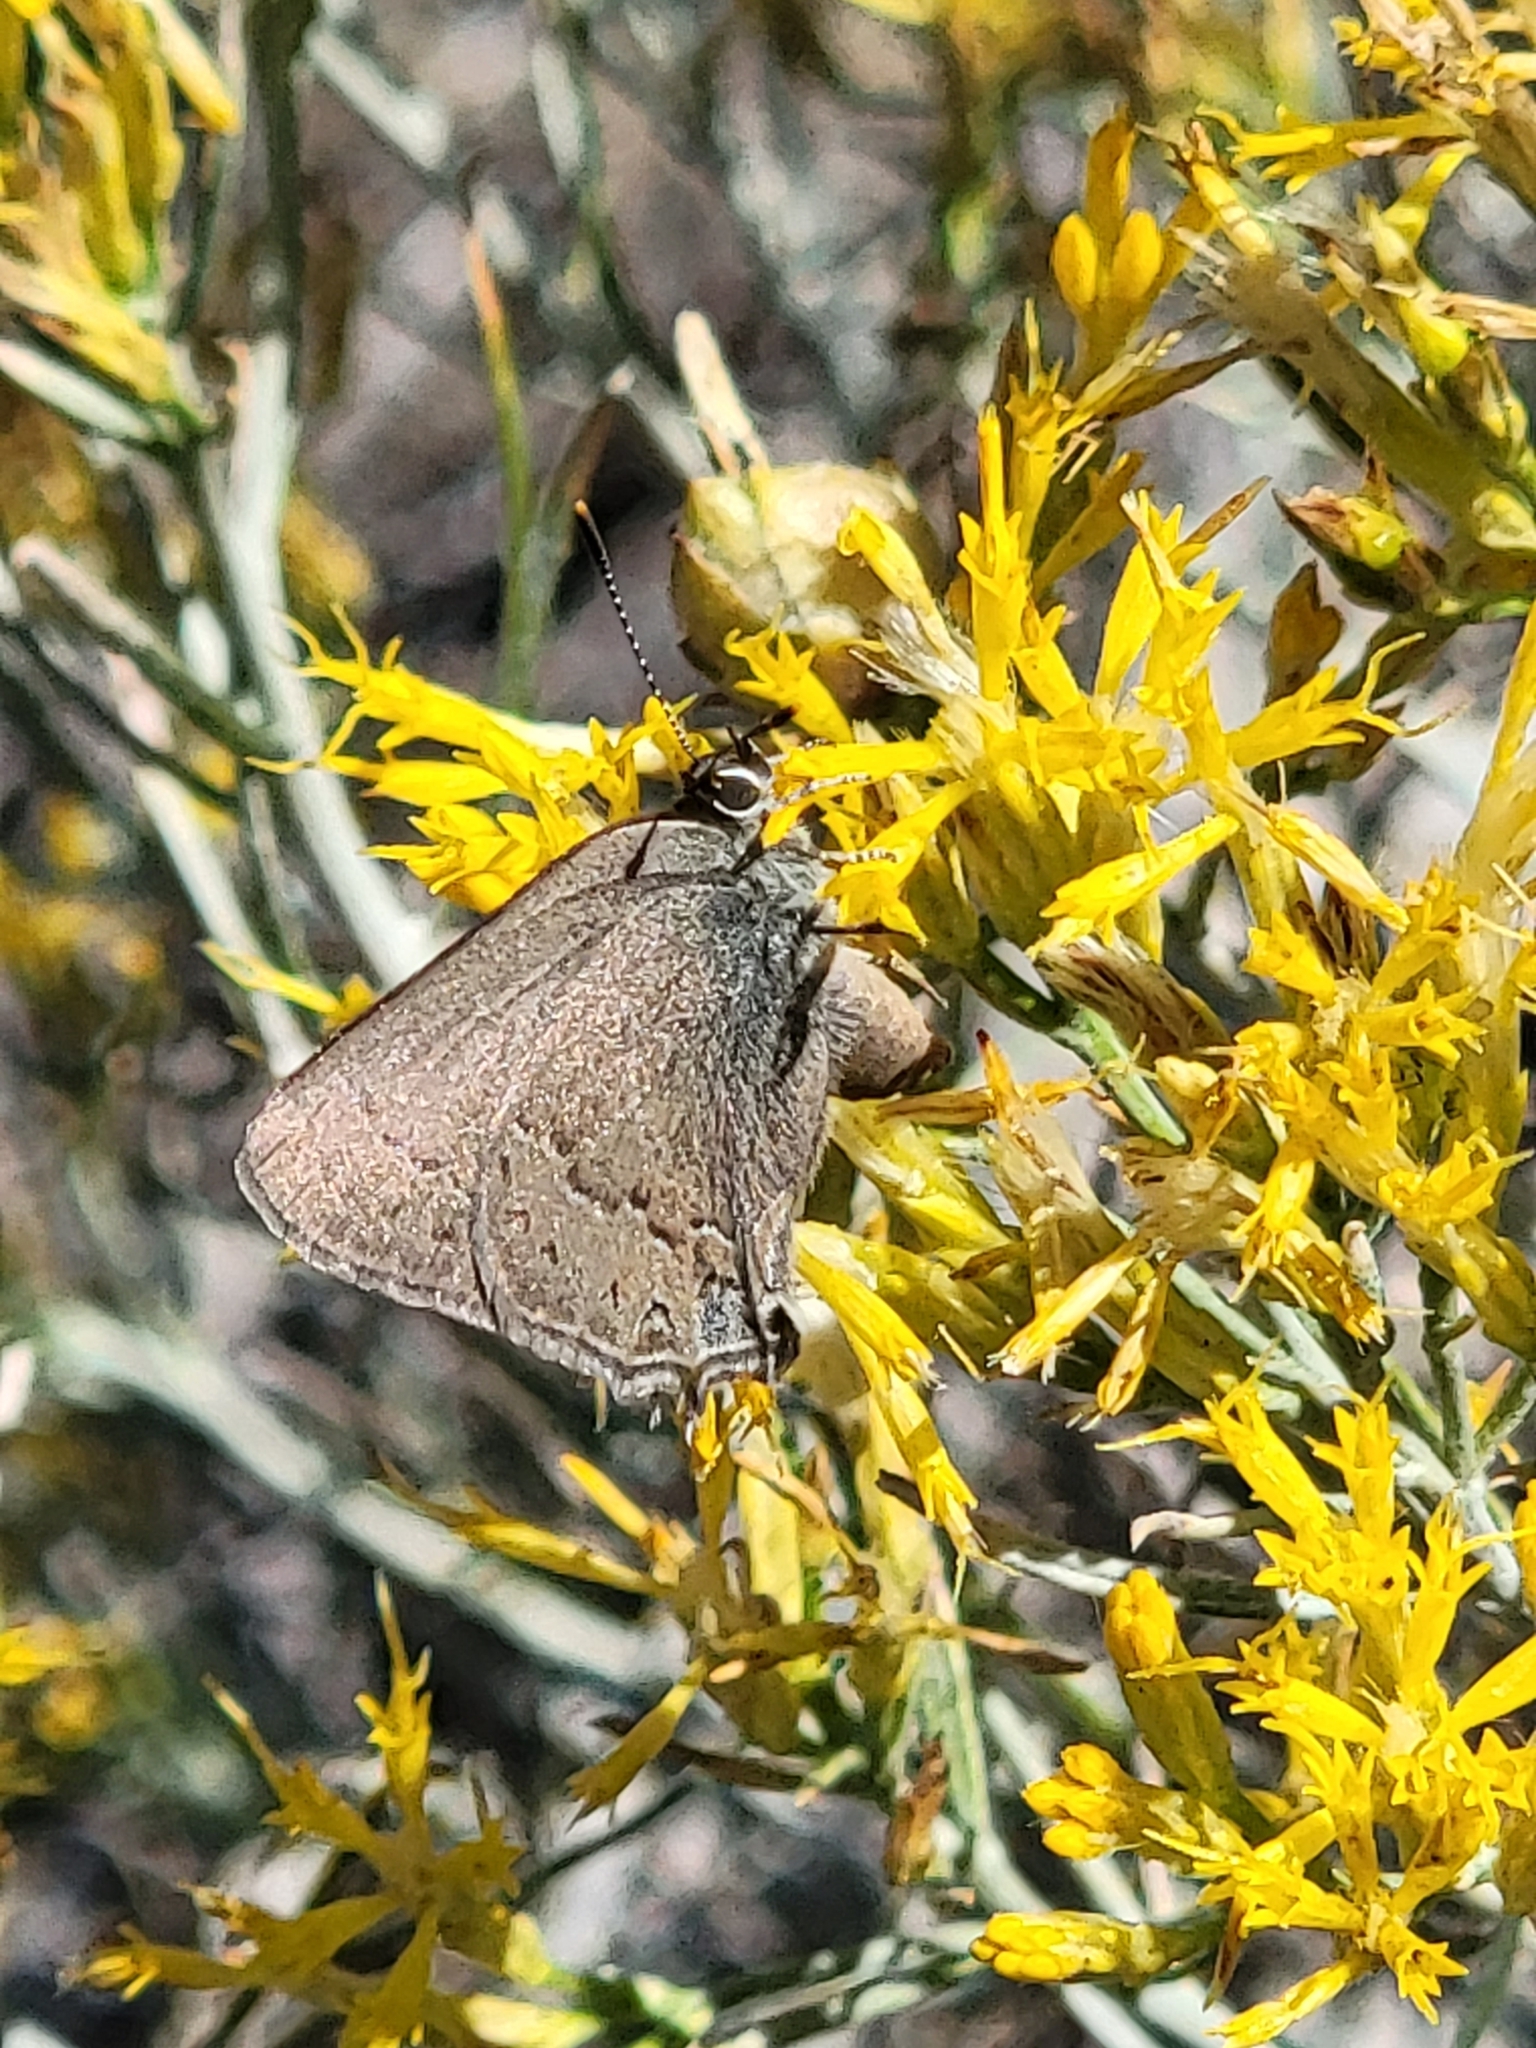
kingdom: Animalia
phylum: Arthropoda
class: Insecta
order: Lepidoptera
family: Lycaenidae
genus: Strymon
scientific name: Strymon saepium
